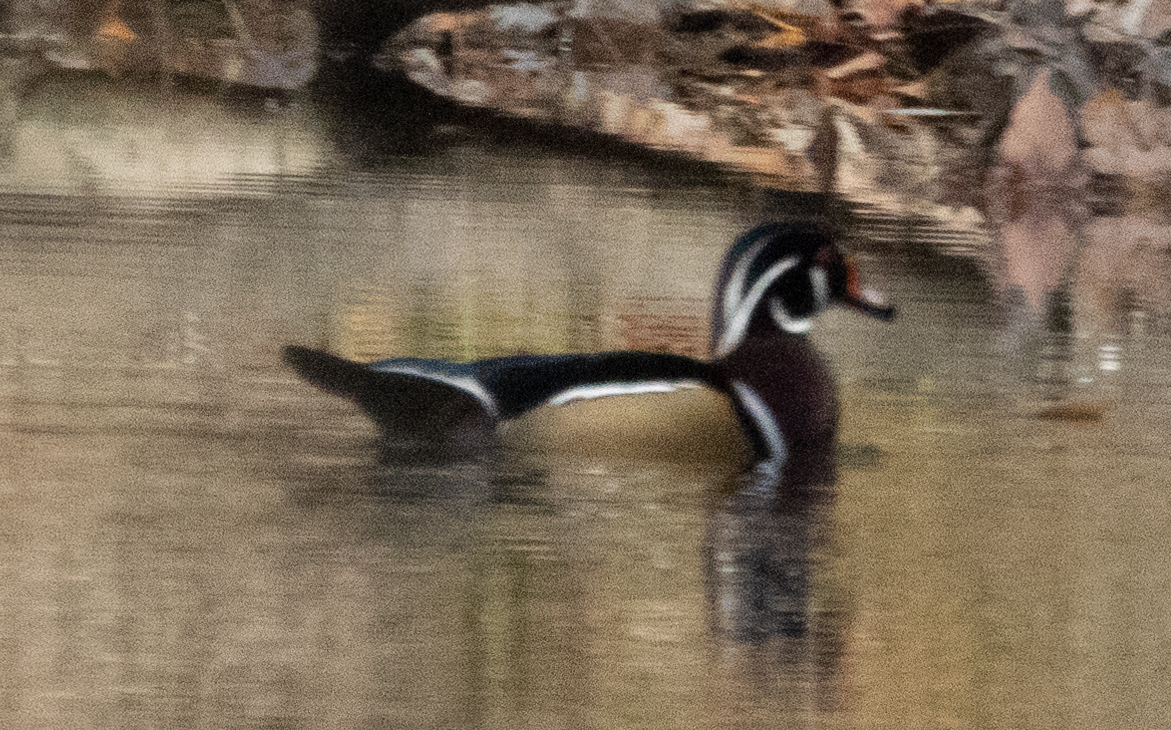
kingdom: Animalia
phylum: Chordata
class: Aves
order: Anseriformes
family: Anatidae
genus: Aix
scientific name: Aix sponsa
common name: Wood duck
